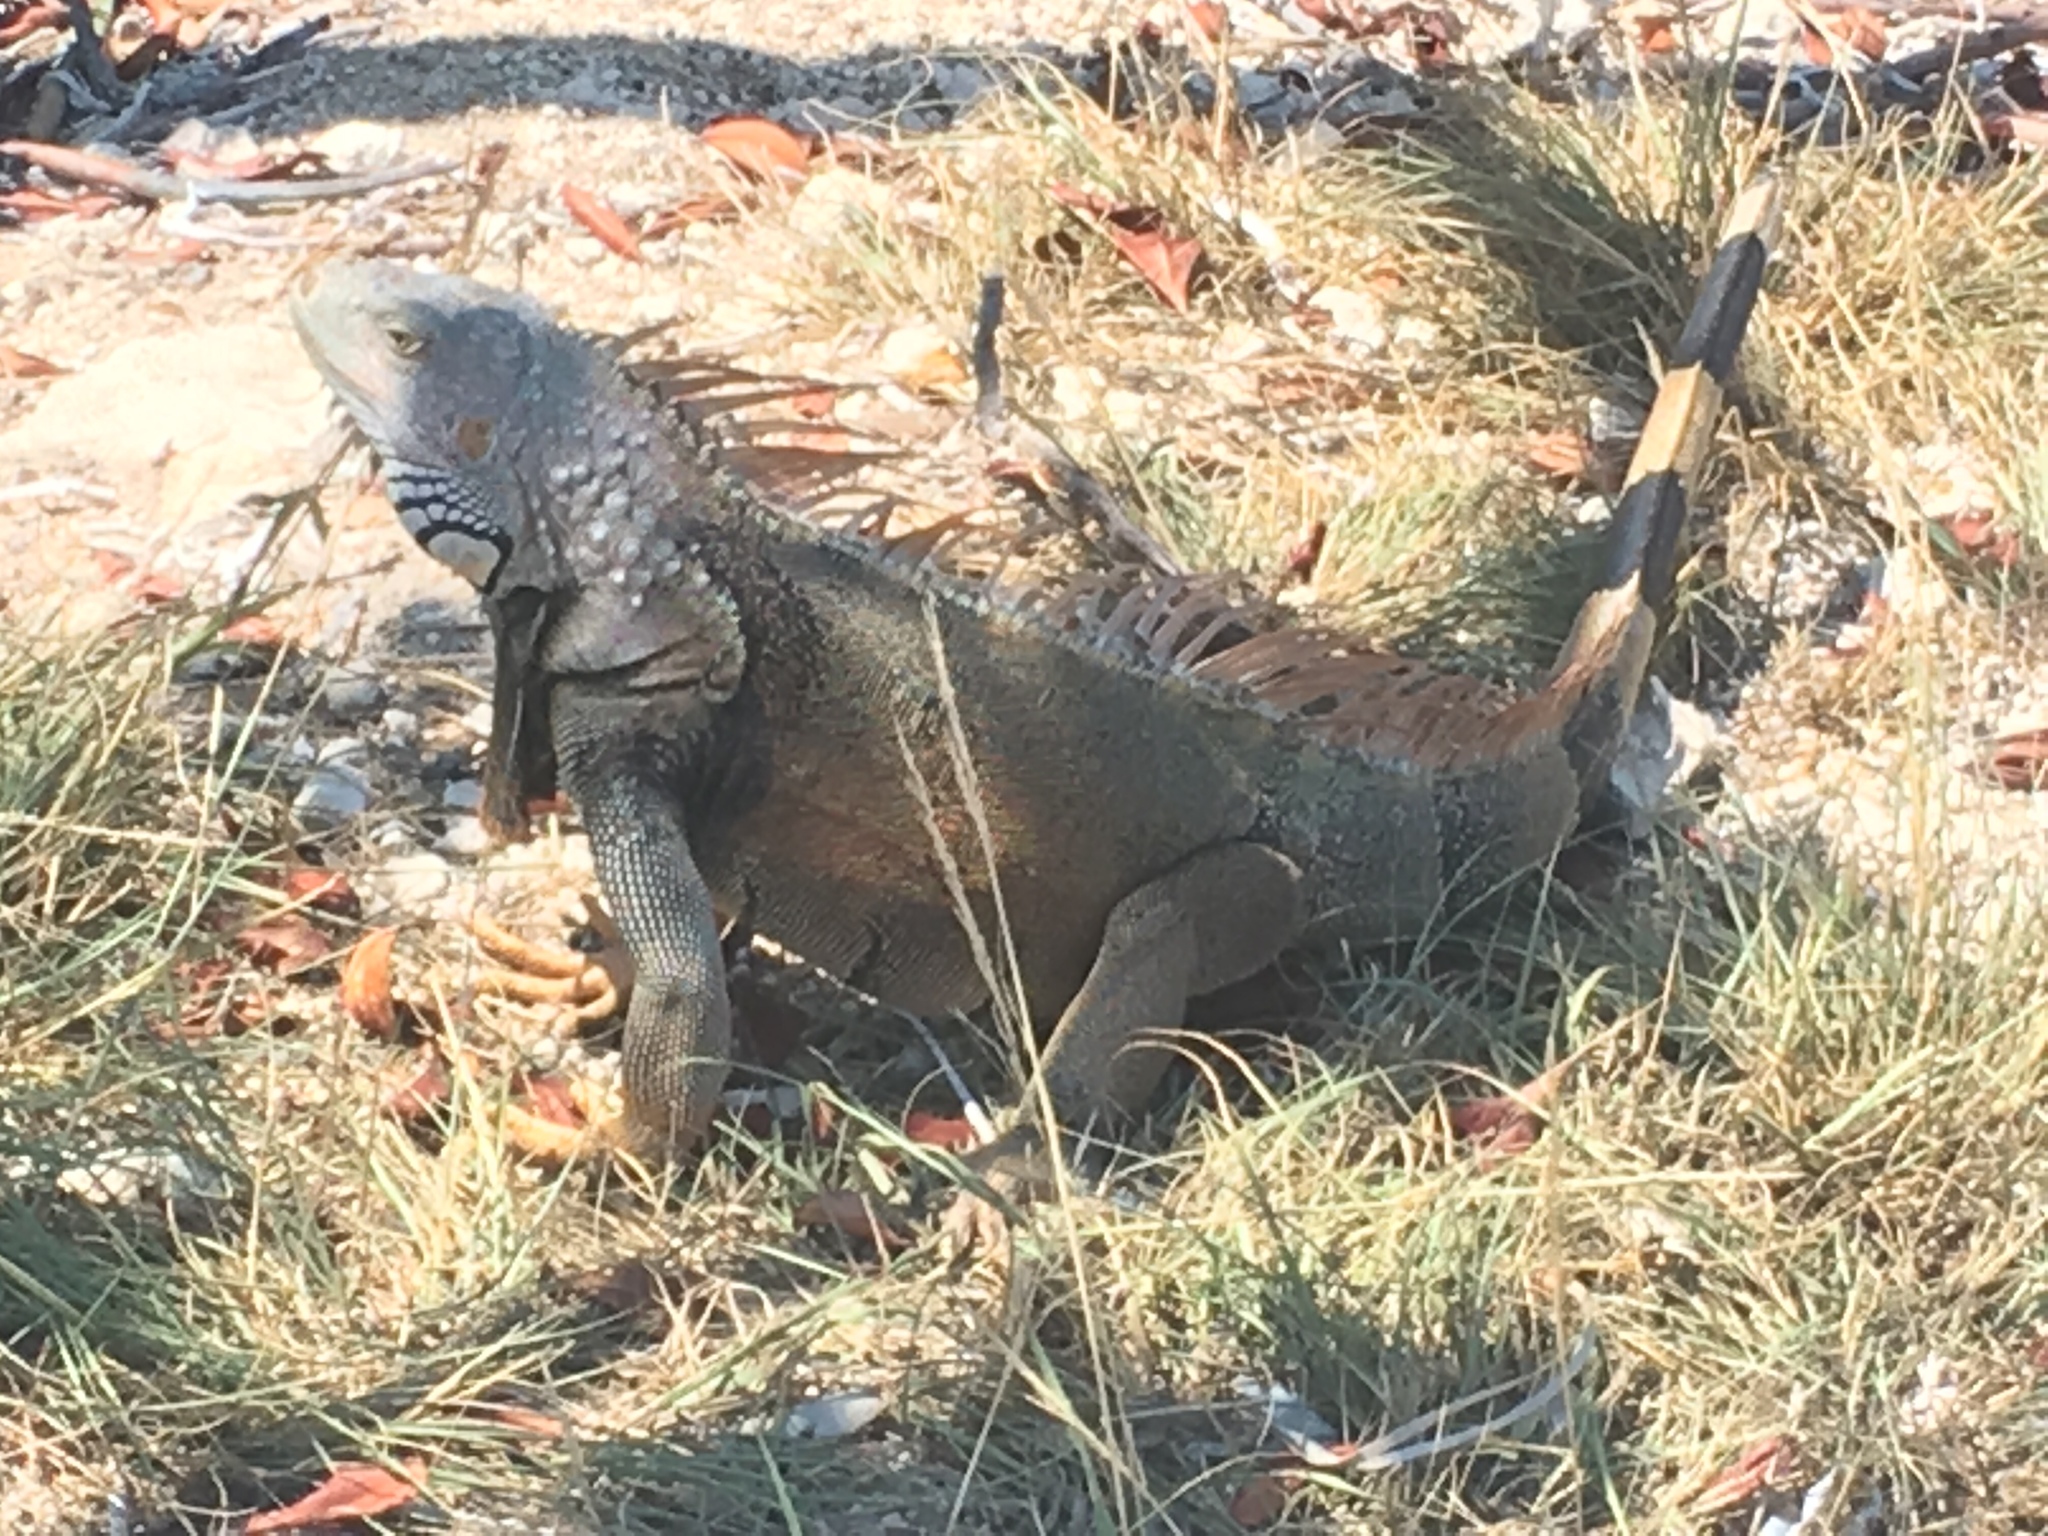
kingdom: Animalia
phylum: Chordata
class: Squamata
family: Iguanidae
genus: Iguana
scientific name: Iguana iguana
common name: Green iguana
